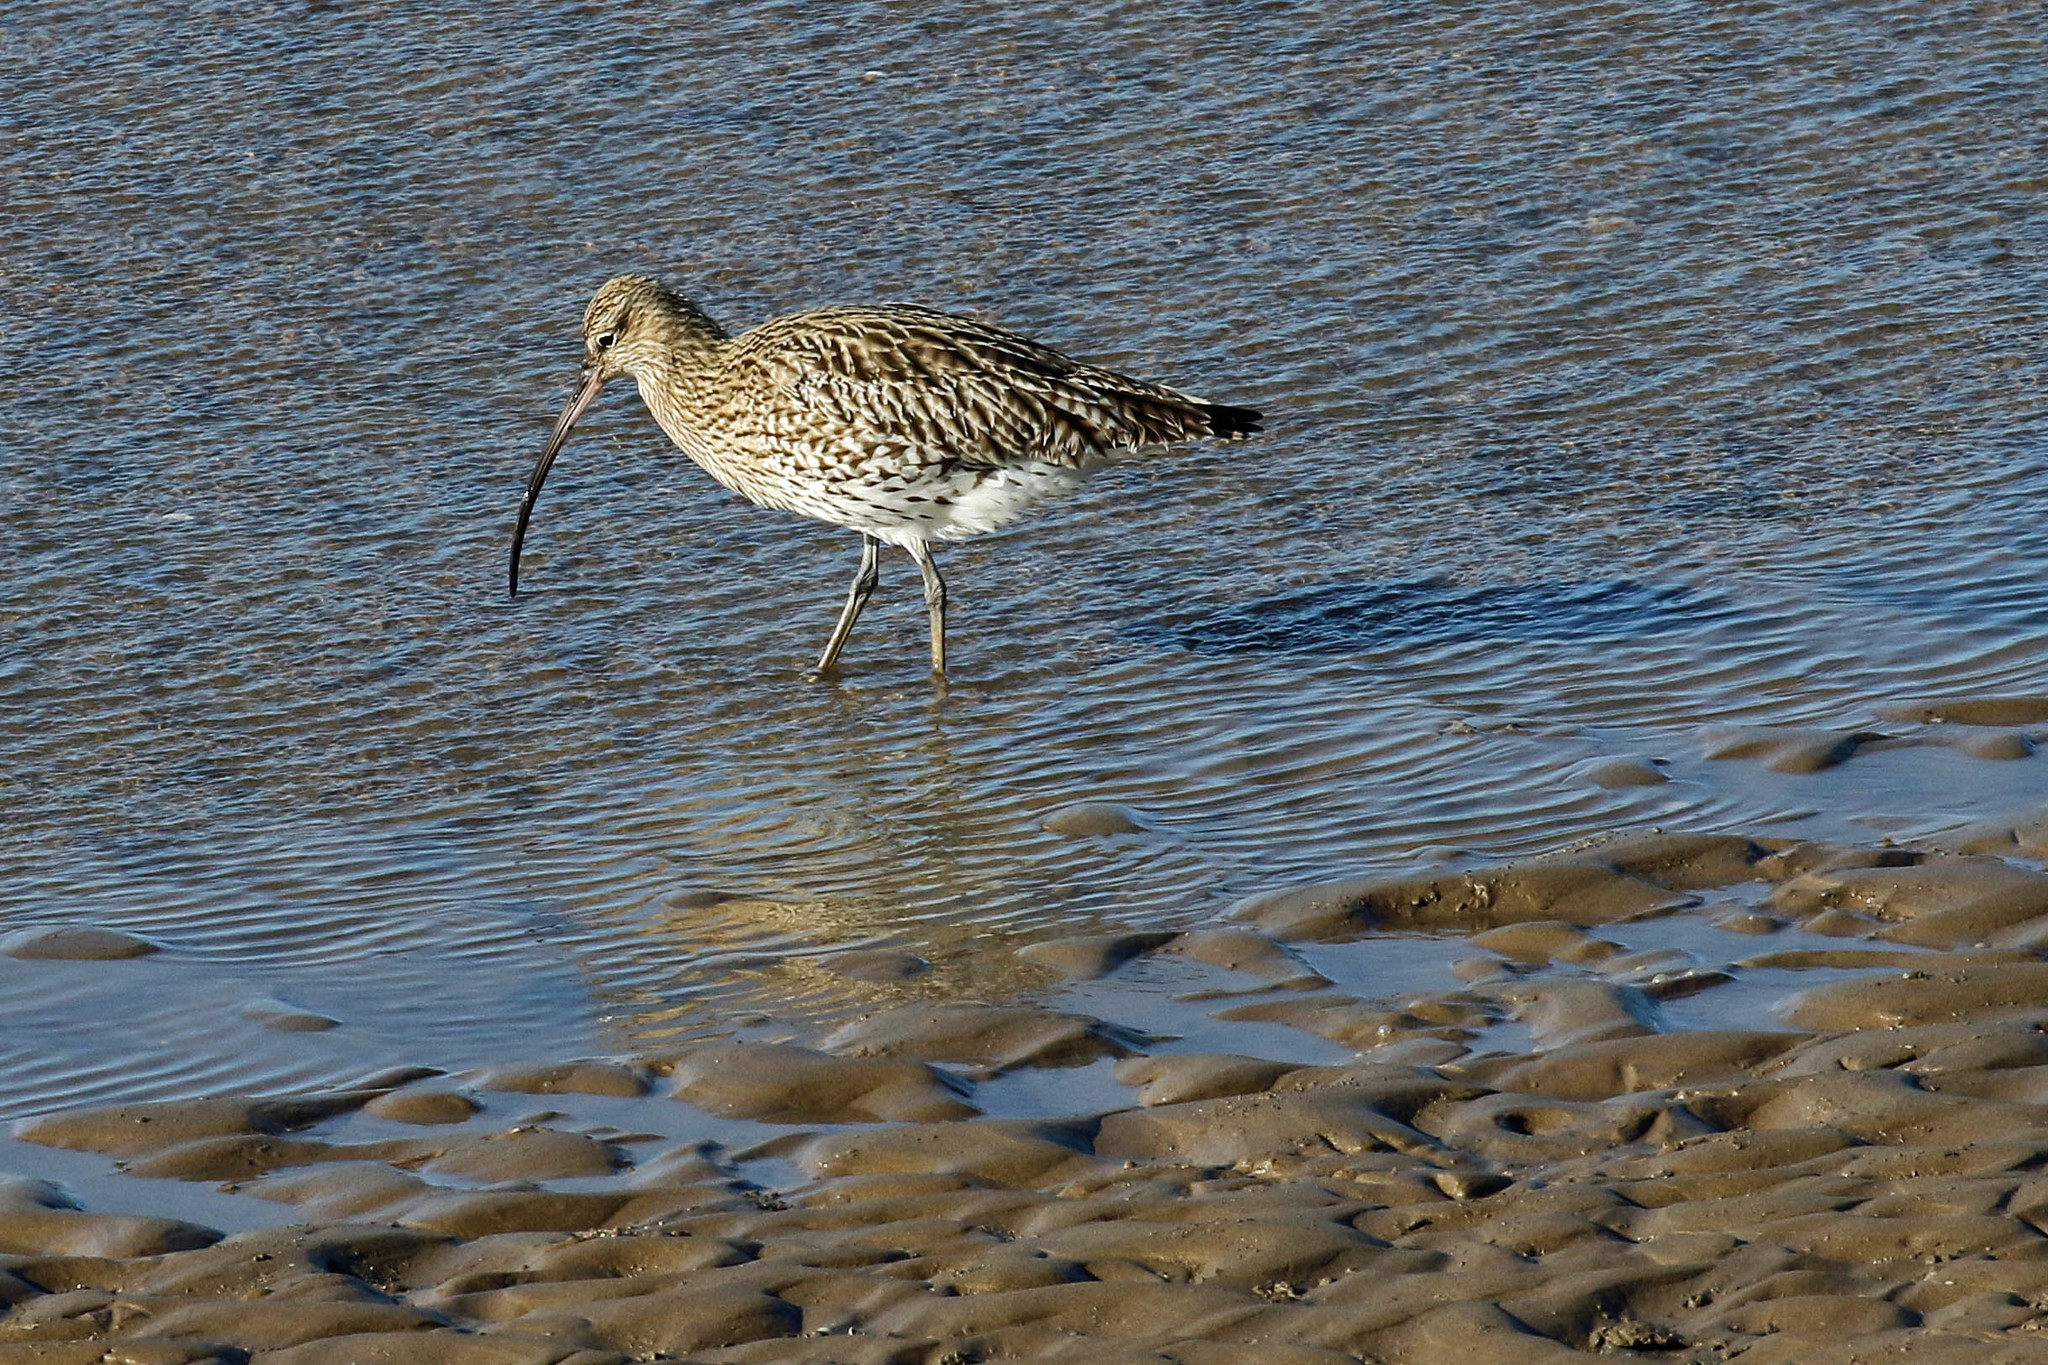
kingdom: Animalia
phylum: Chordata
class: Aves
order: Charadriiformes
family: Scolopacidae
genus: Numenius
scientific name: Numenius arquata
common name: Eurasian curlew
